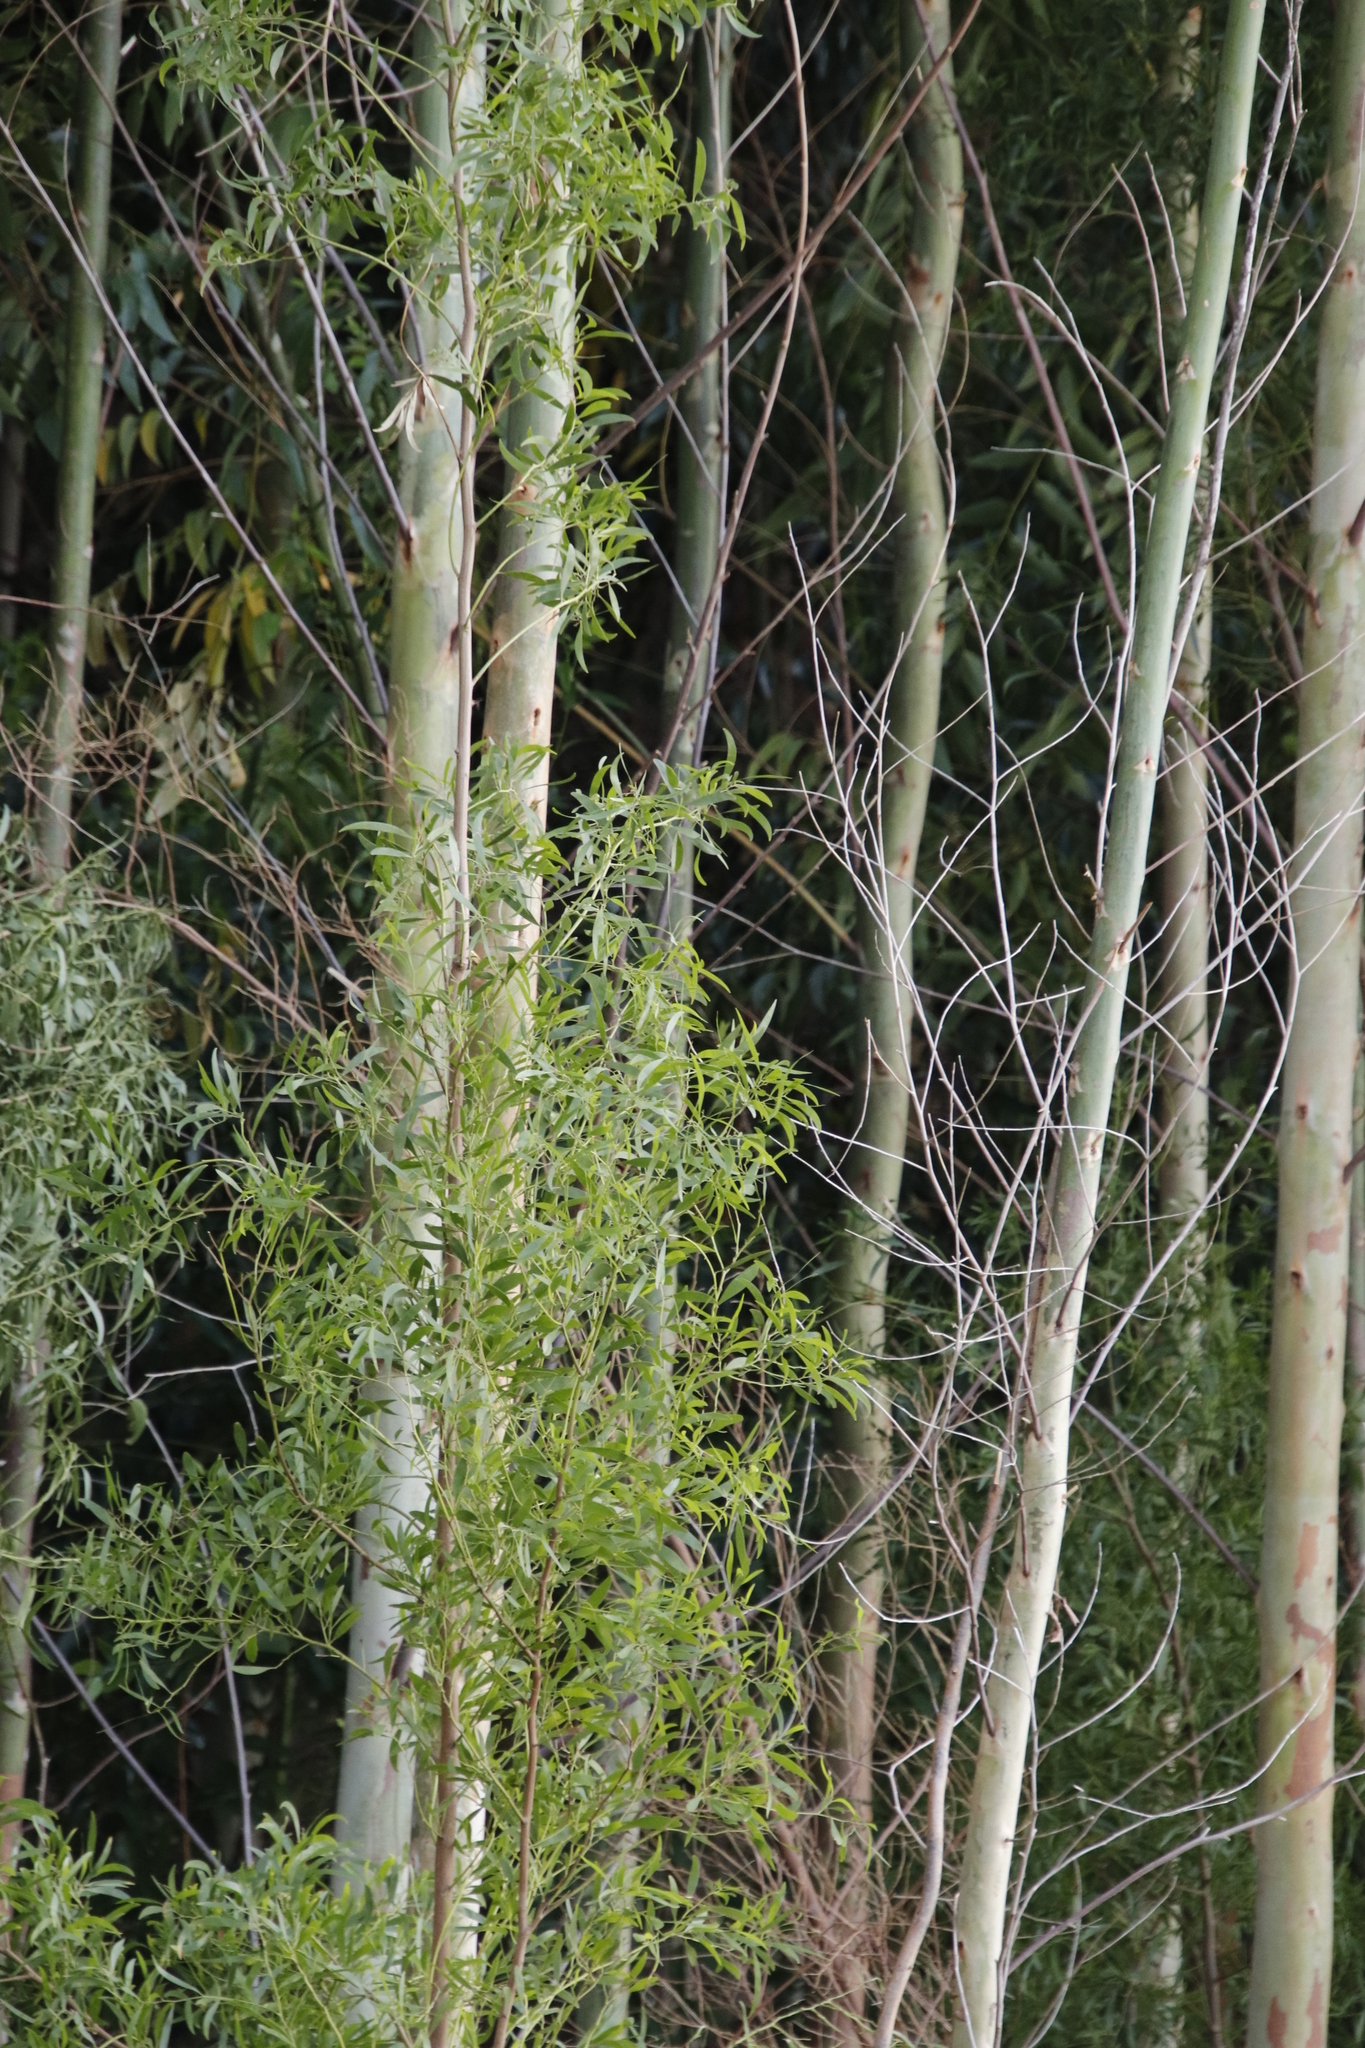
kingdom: Plantae
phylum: Tracheophyta
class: Magnoliopsida
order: Fabales
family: Fabaceae
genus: Acacia
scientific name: Acacia melanoxylon
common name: Blackwood
